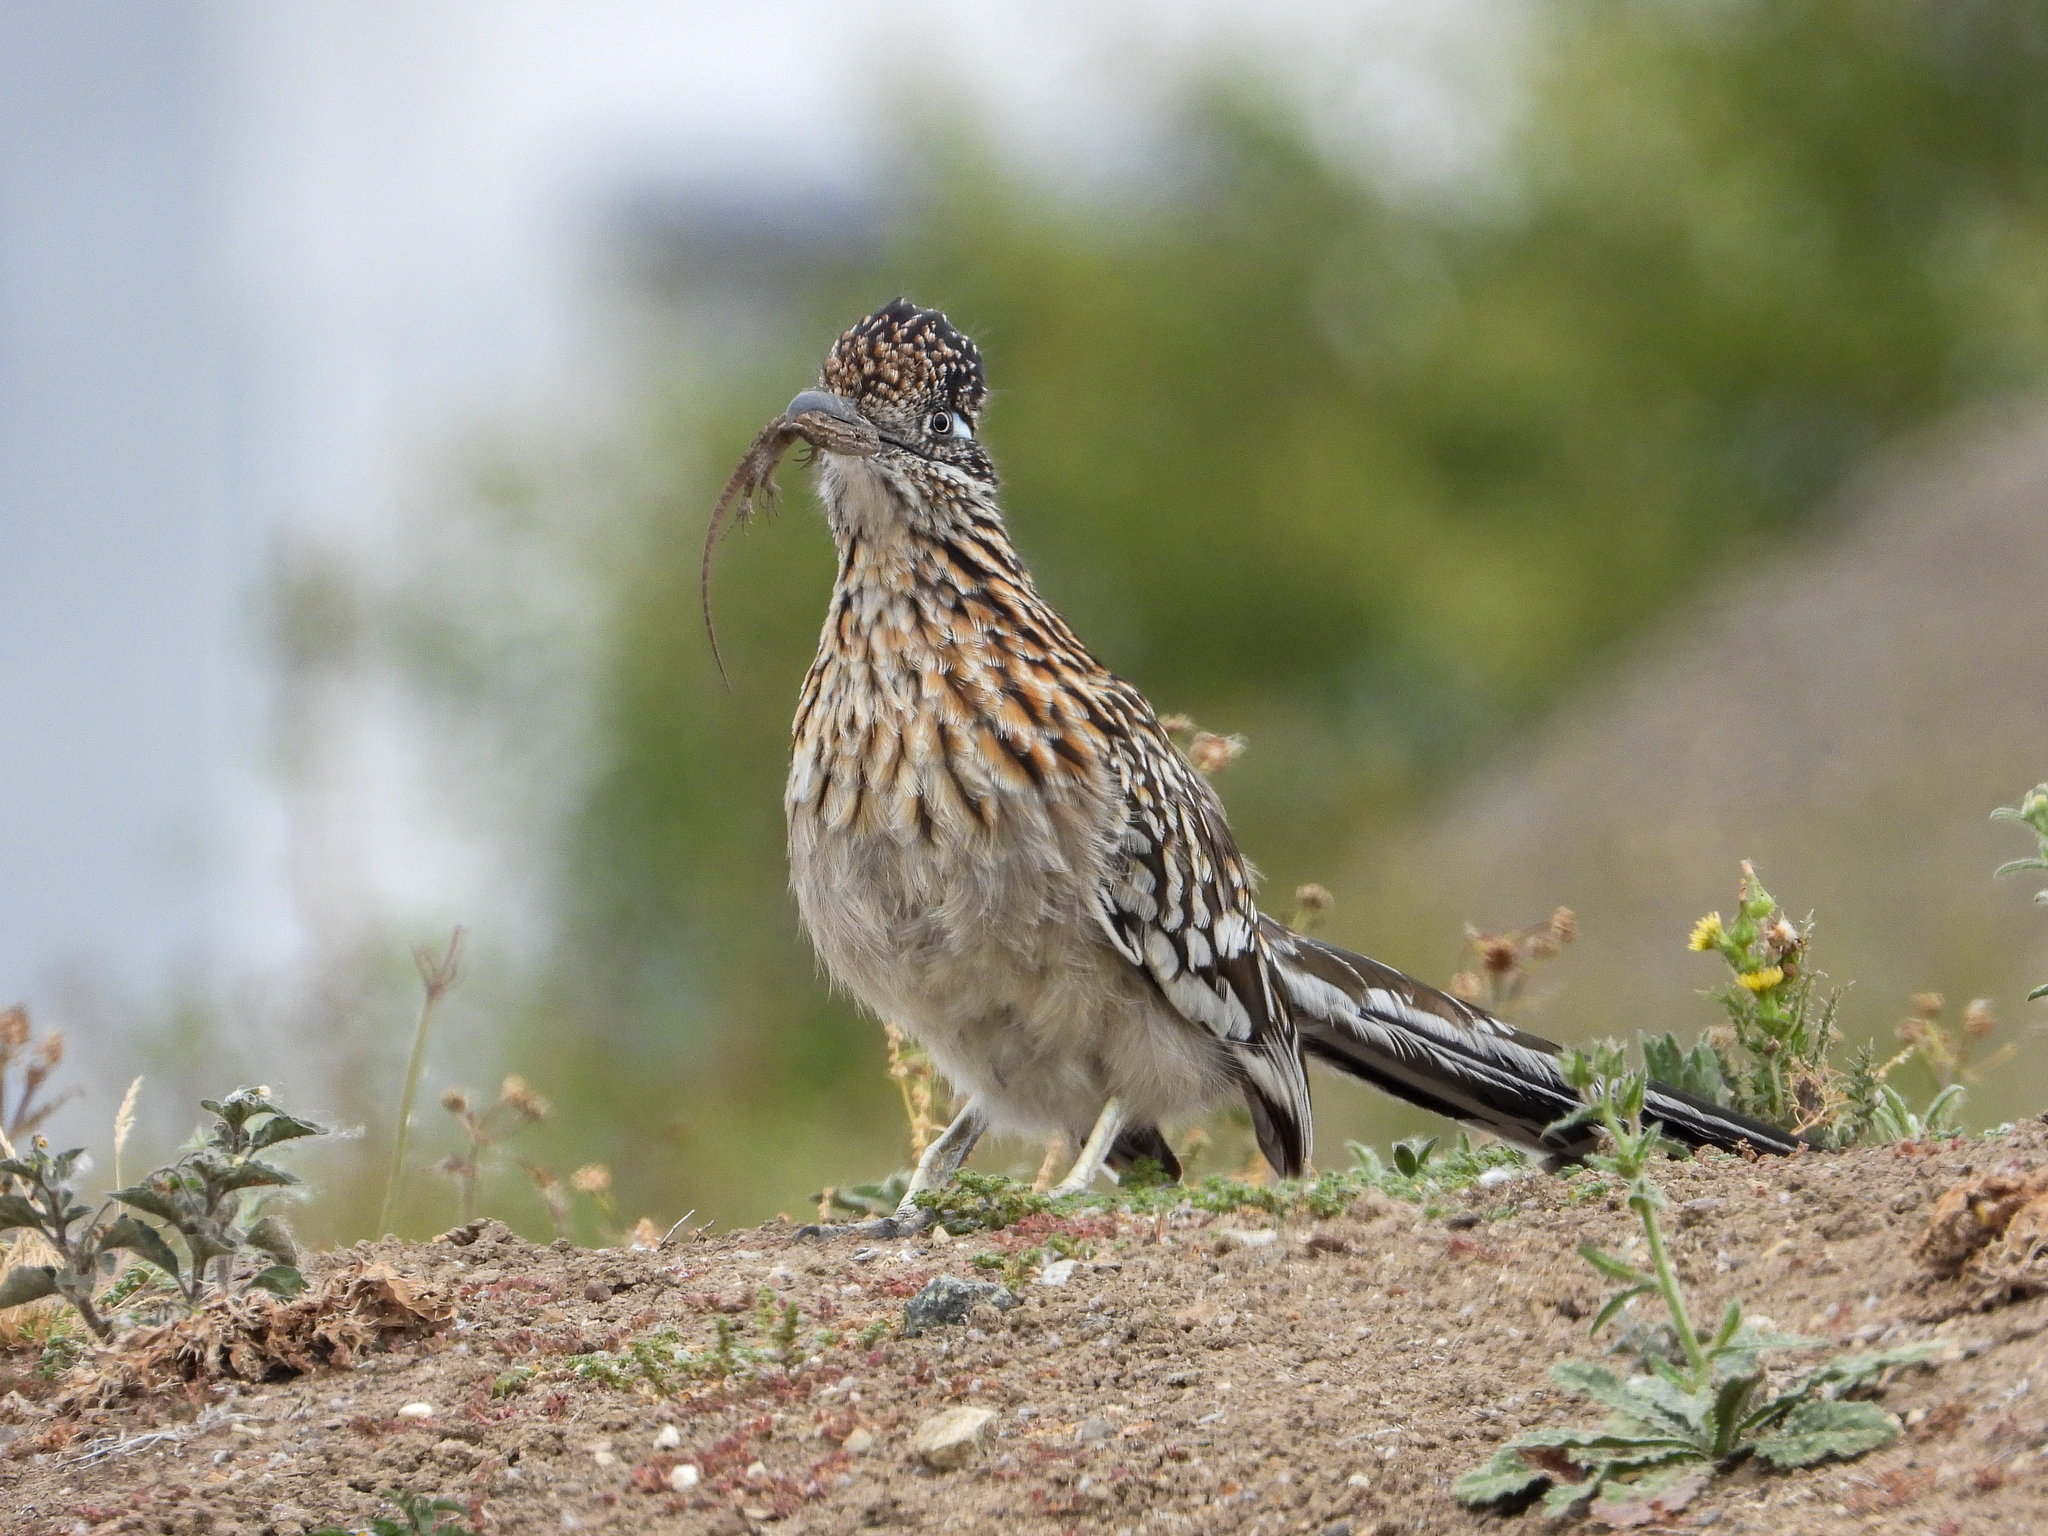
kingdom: Animalia
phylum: Chordata
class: Aves
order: Cuculiformes
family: Cuculidae
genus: Geococcyx
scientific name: Geococcyx californianus
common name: Greater roadrunner
